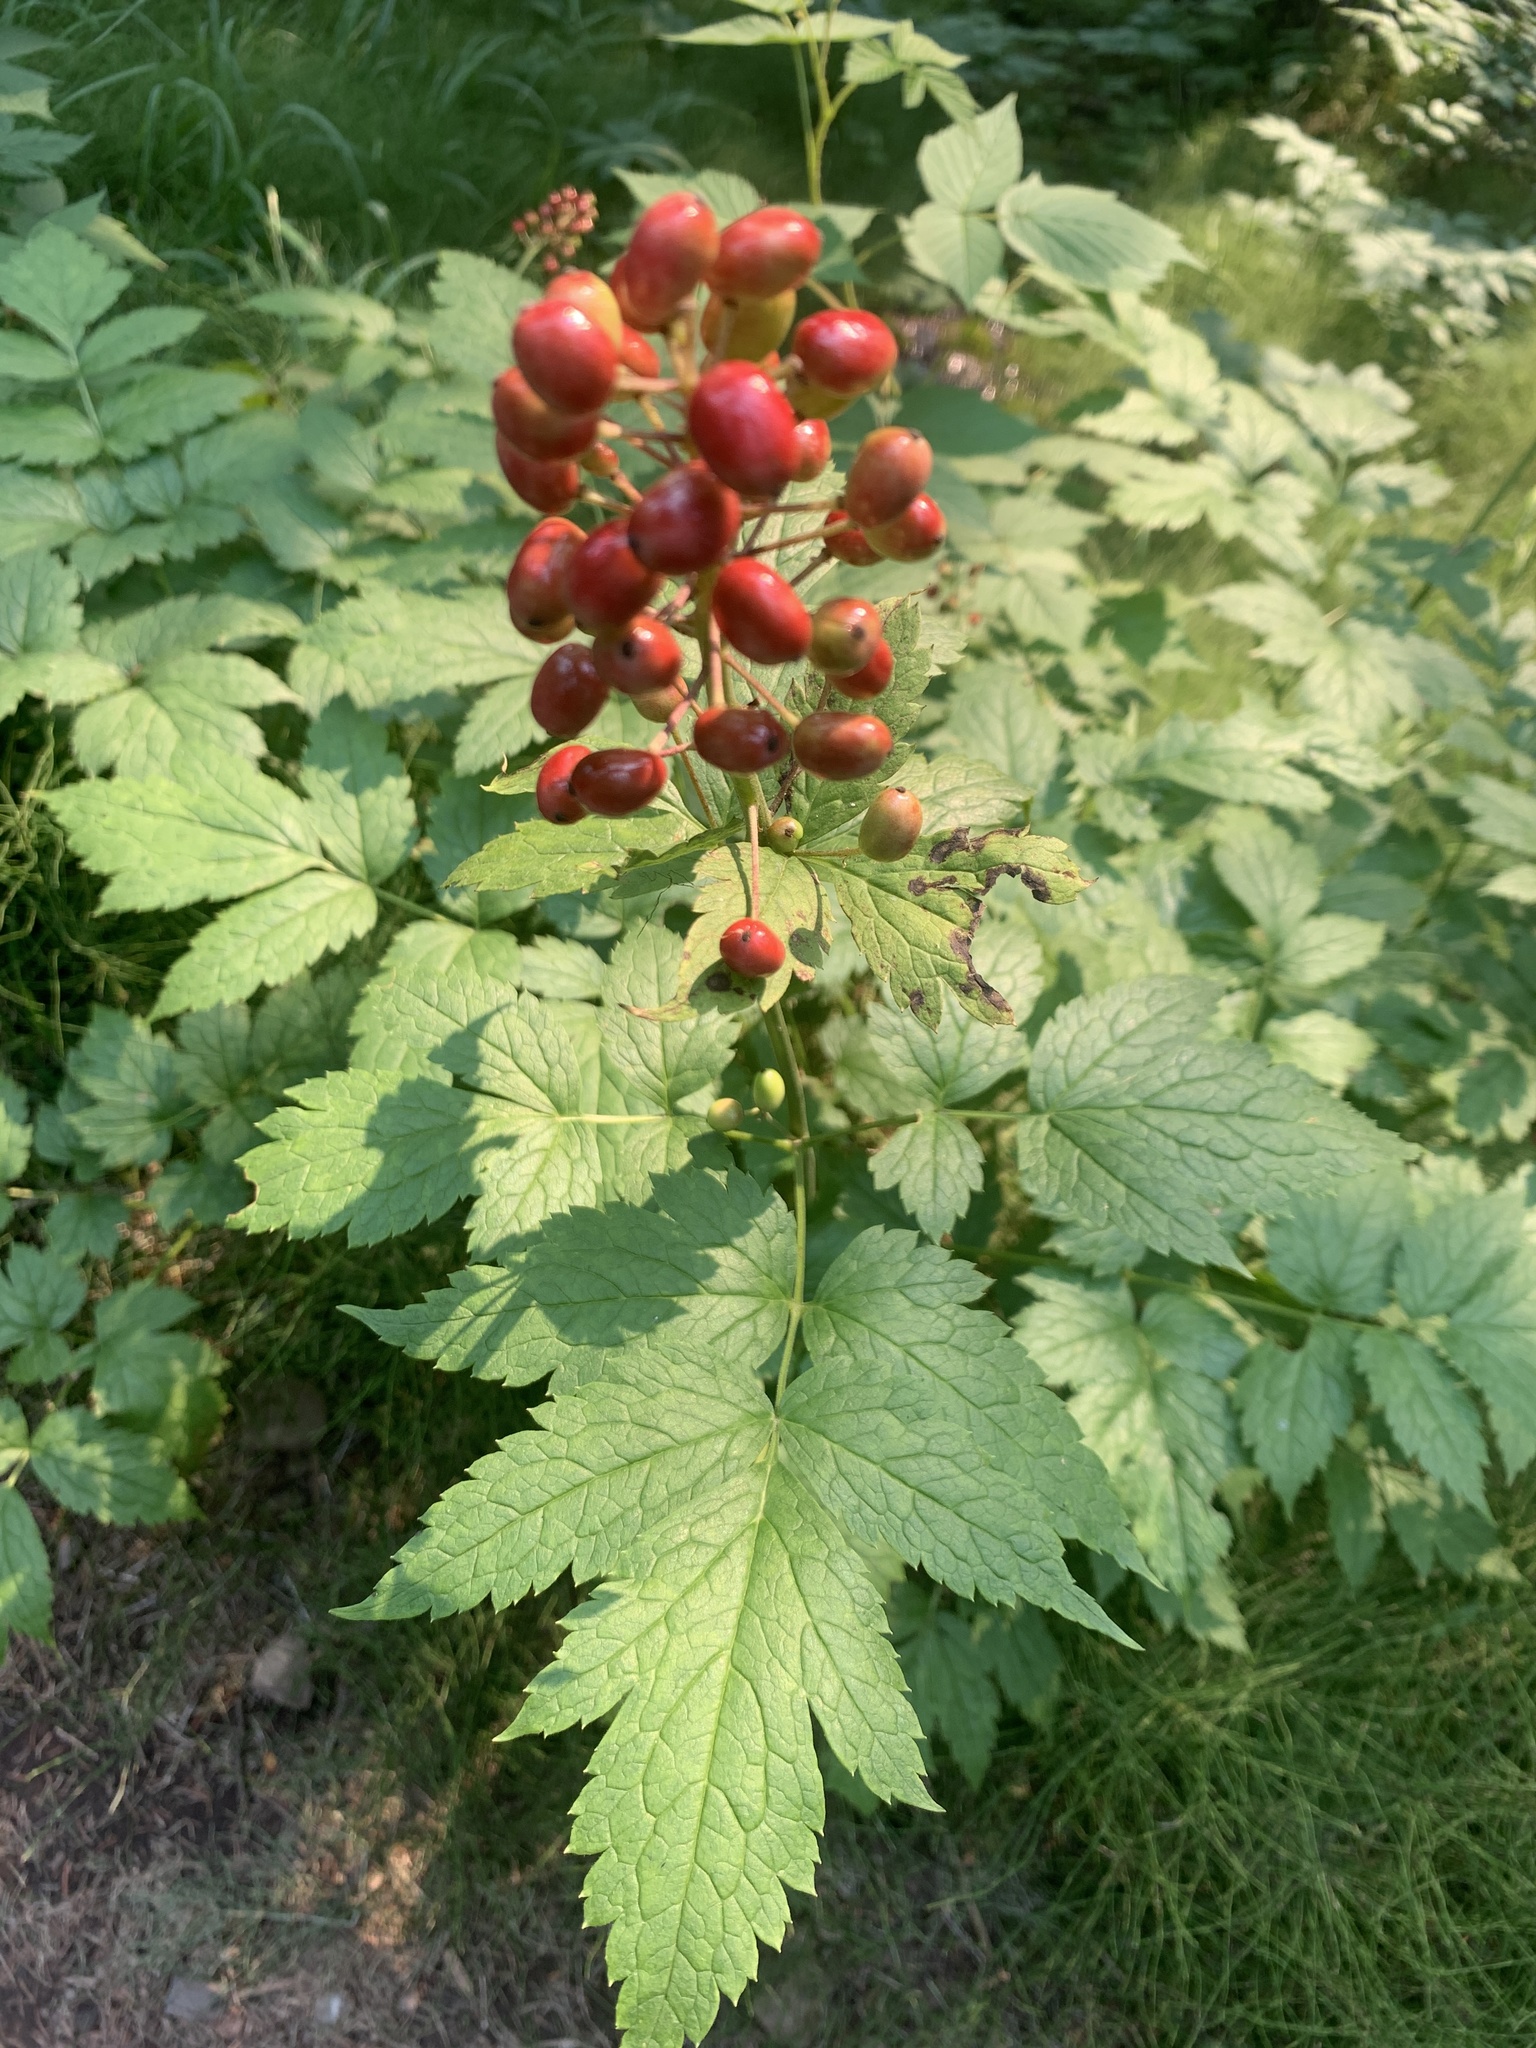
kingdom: Plantae
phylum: Tracheophyta
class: Magnoliopsida
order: Ranunculales
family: Ranunculaceae
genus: Actaea
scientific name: Actaea rubra
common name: Red baneberry
